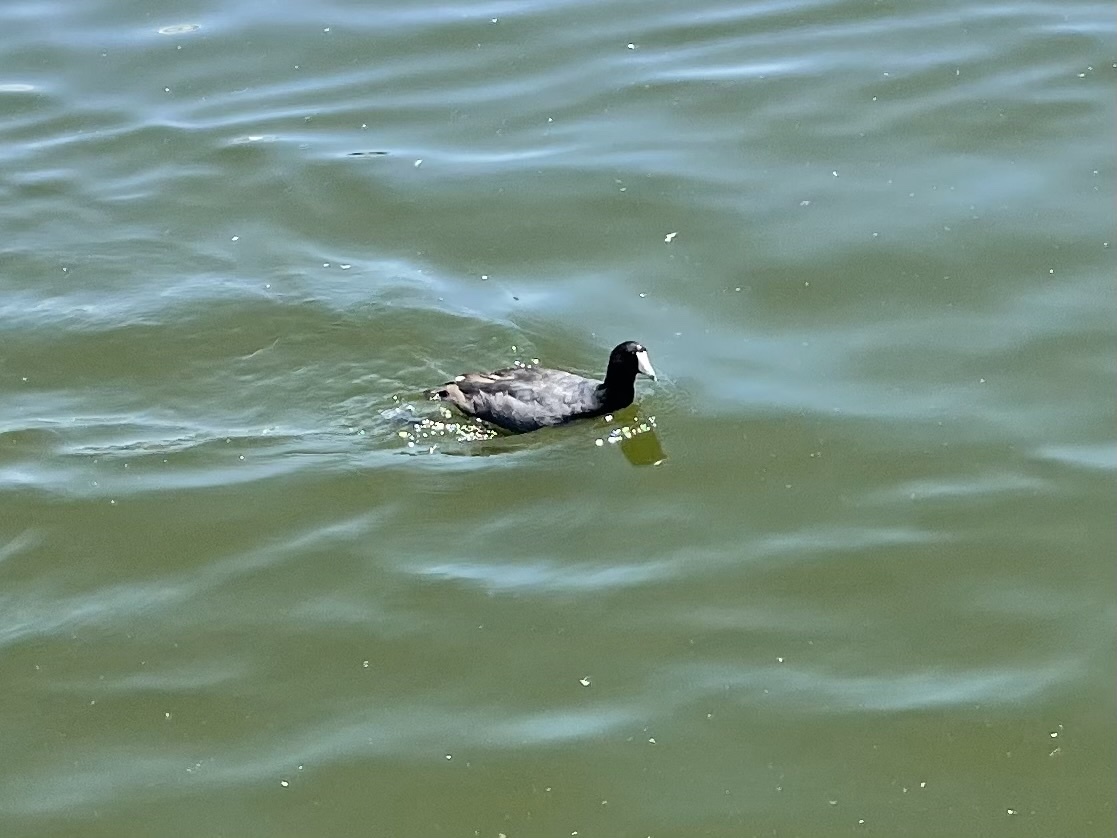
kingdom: Animalia
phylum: Chordata
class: Aves
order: Gruiformes
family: Rallidae
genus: Fulica
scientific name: Fulica americana
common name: American coot
